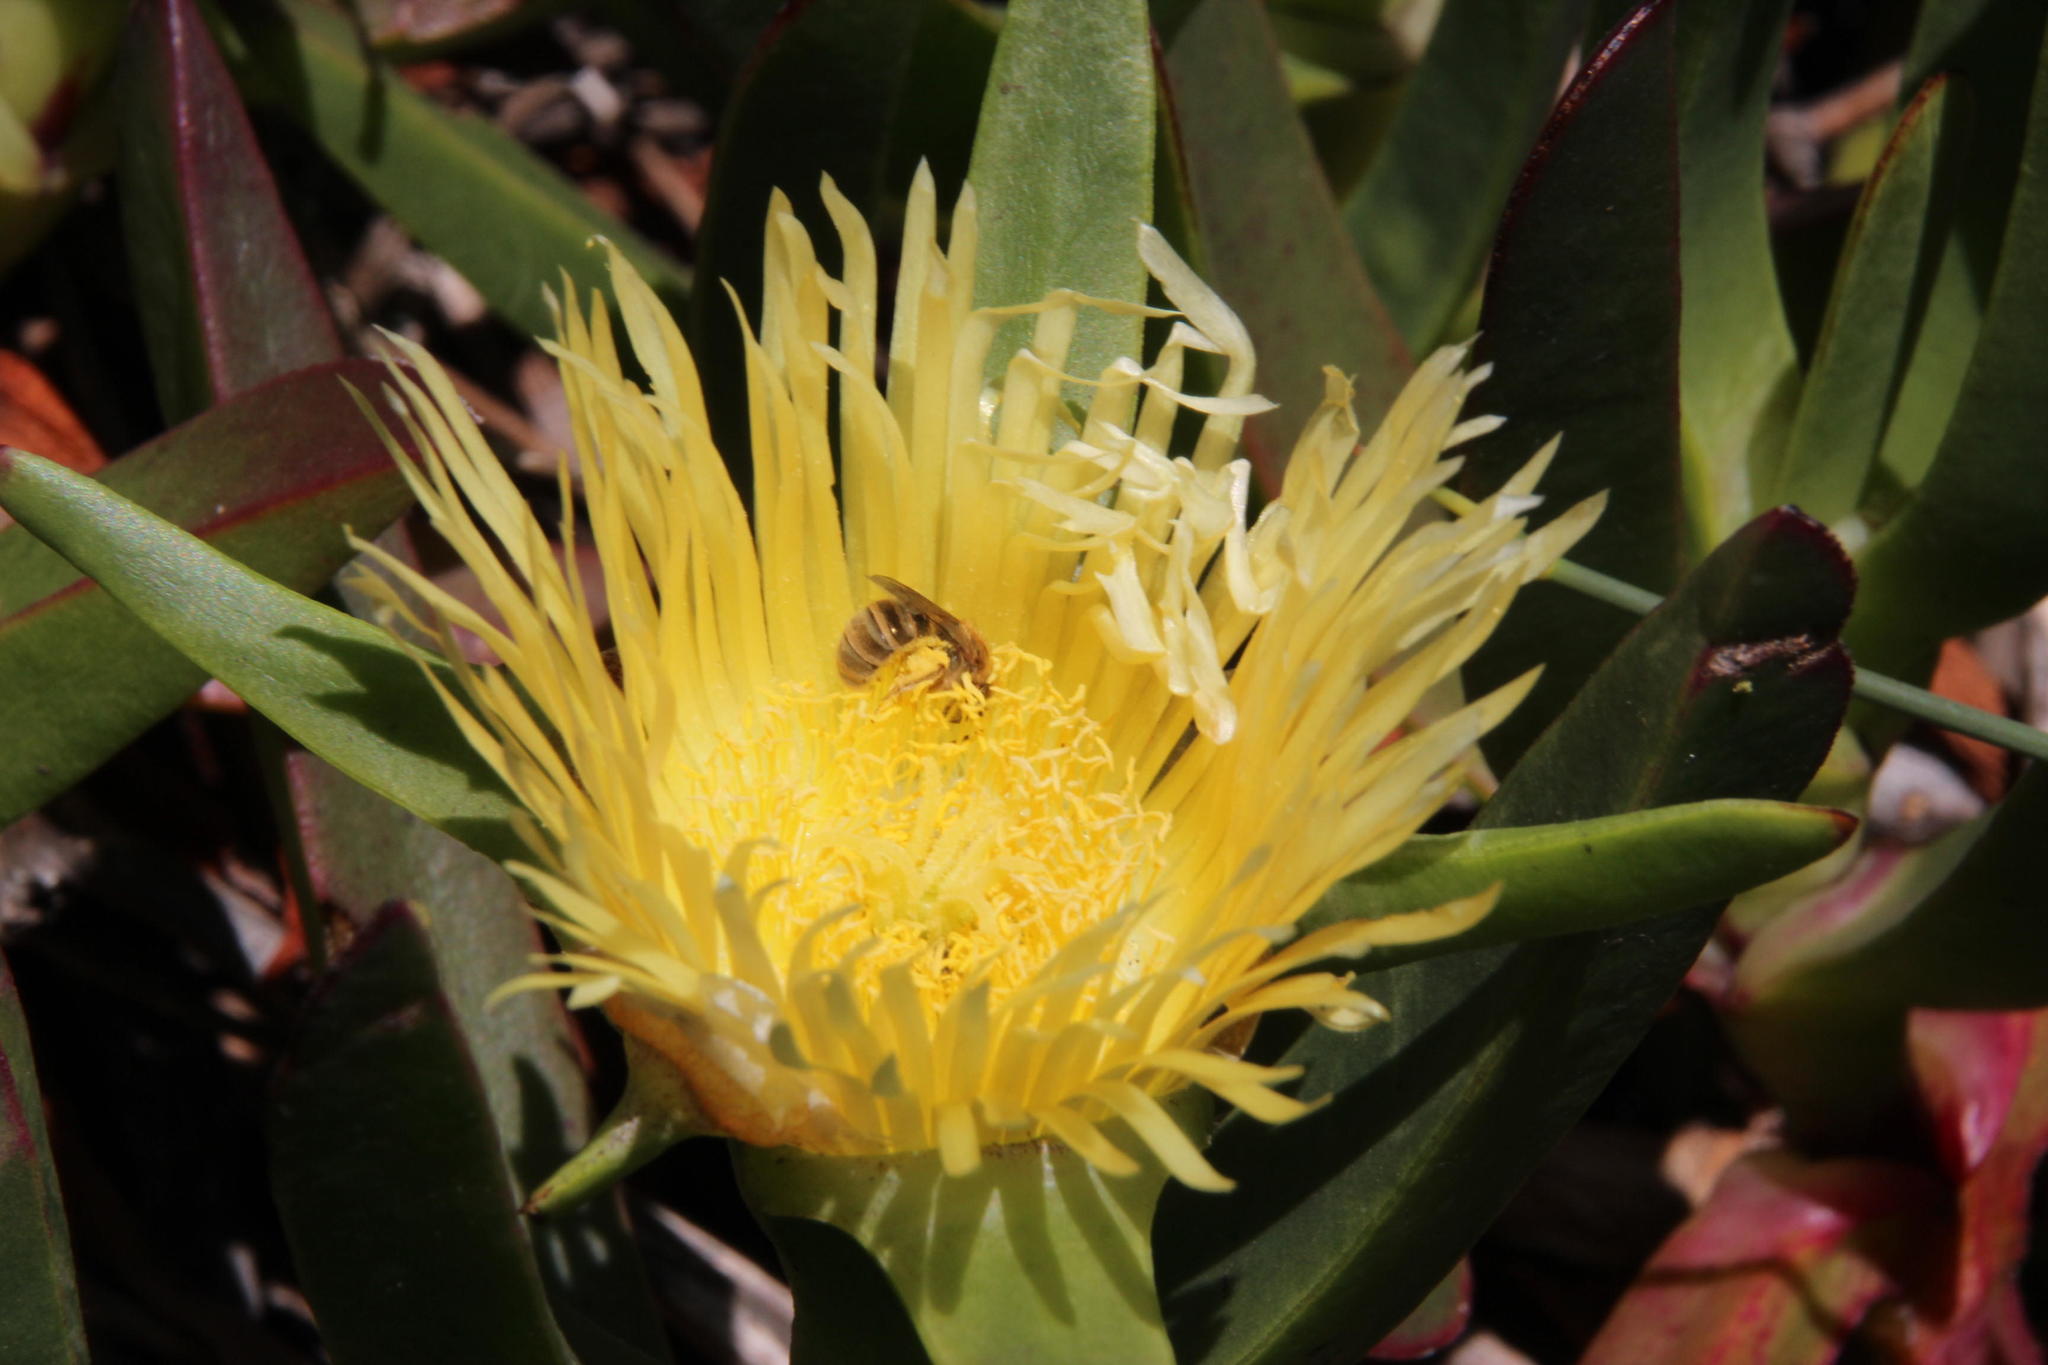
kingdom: Plantae
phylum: Tracheophyta
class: Magnoliopsida
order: Caryophyllales
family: Aizoaceae
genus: Carpobrotus
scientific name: Carpobrotus edulis
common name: Hottentot-fig
